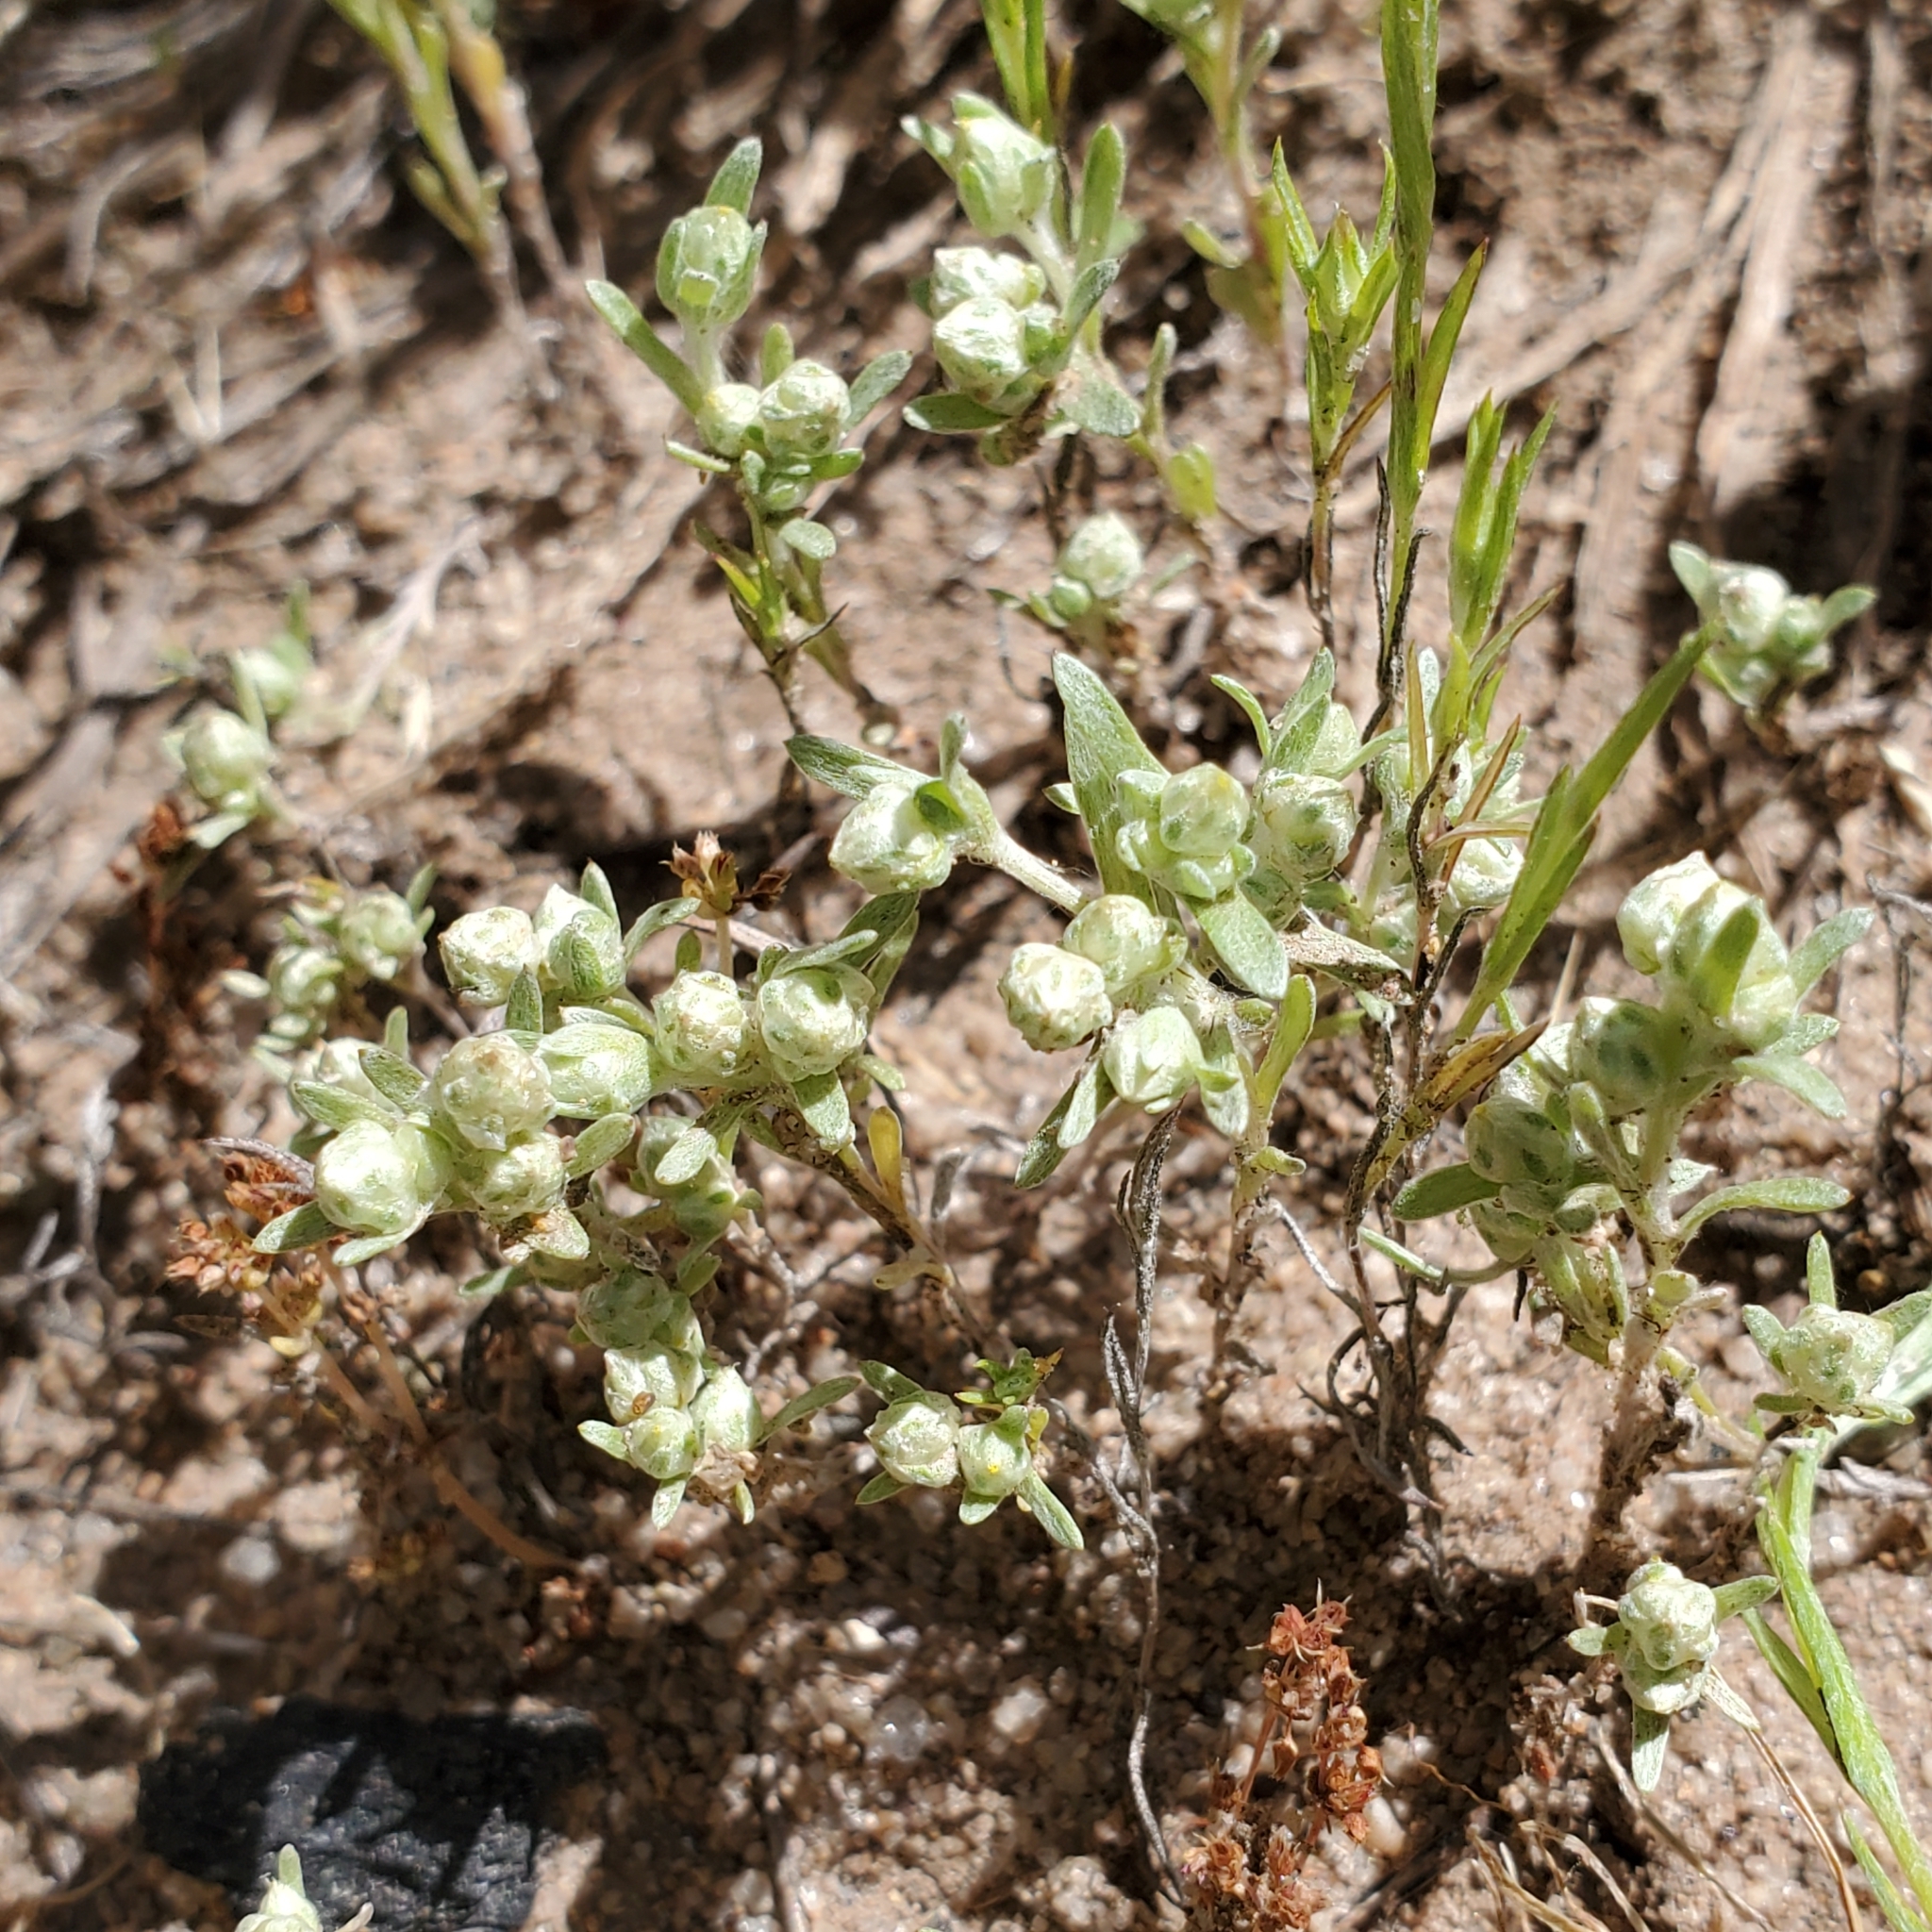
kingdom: Plantae
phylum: Tracheophyta
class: Magnoliopsida
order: Asterales
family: Asteraceae
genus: Stylocline
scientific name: Stylocline gnaphaloides
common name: Everlasting nest-straw
